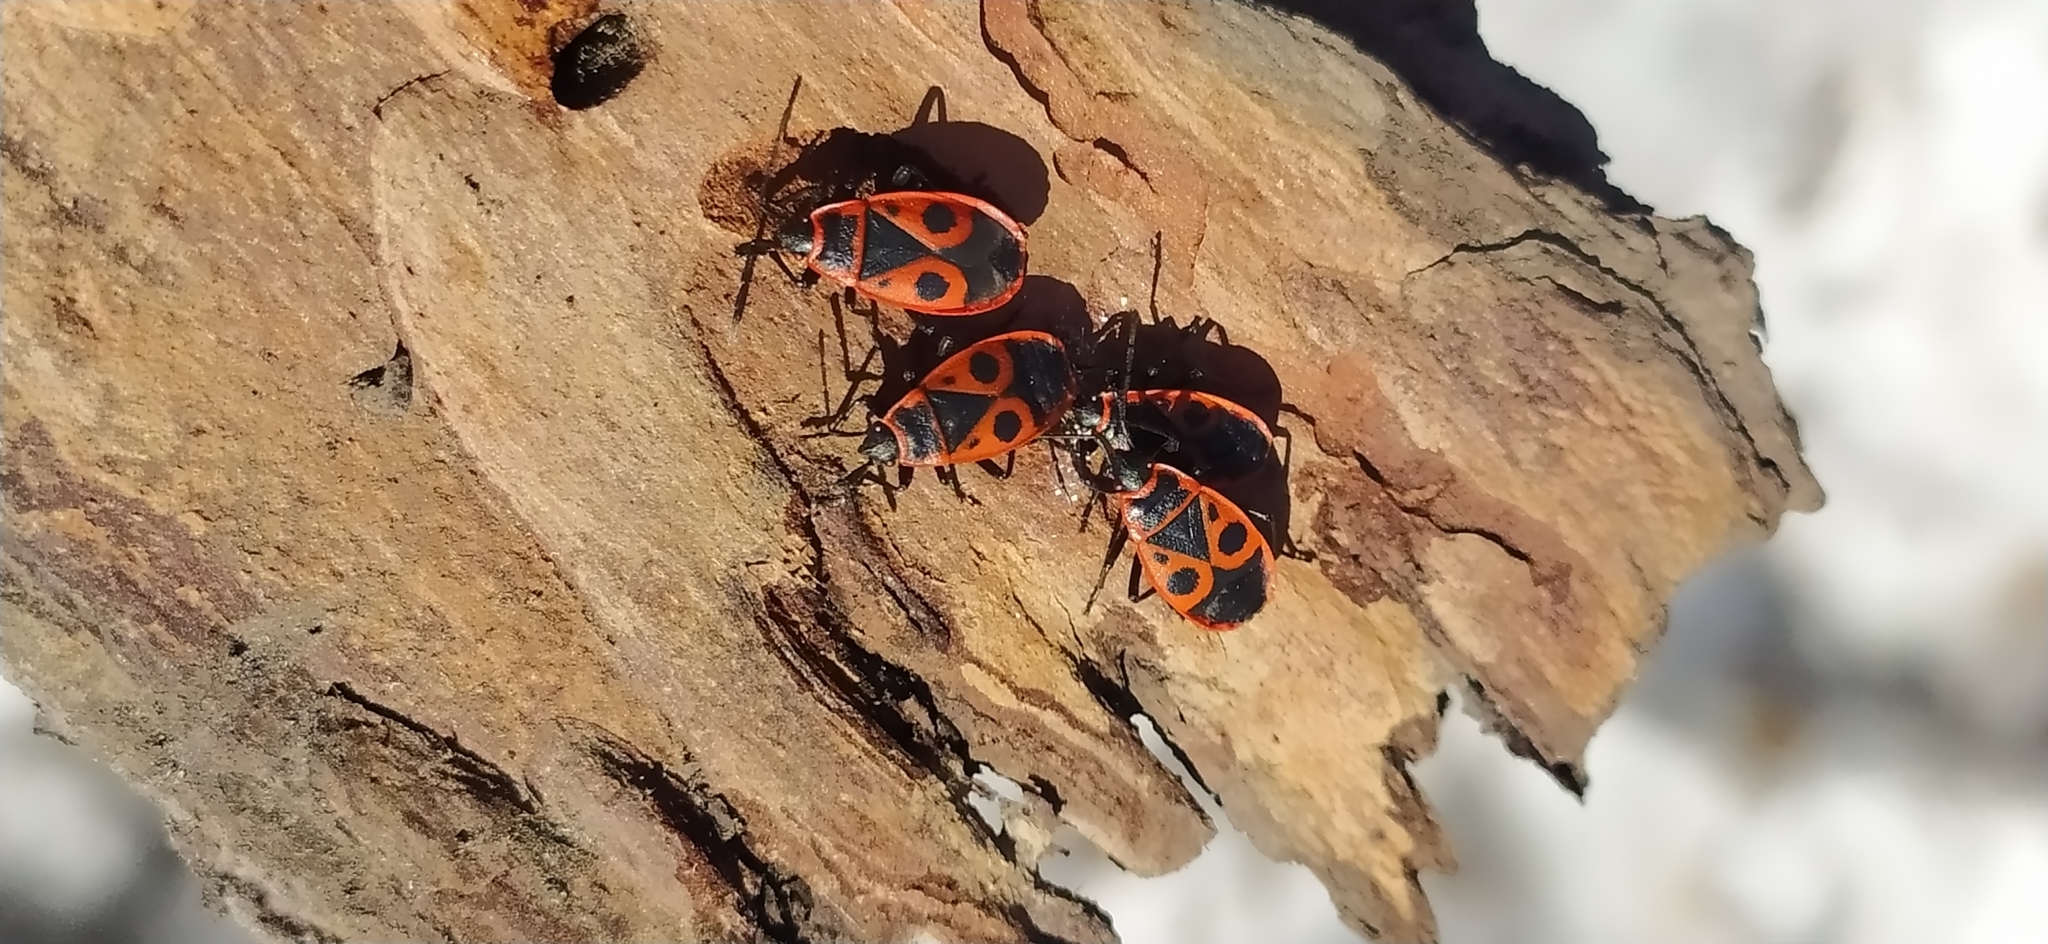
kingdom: Animalia
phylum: Arthropoda
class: Insecta
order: Hemiptera
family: Pyrrhocoridae
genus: Pyrrhocoris
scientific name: Pyrrhocoris apterus
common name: Firebug
